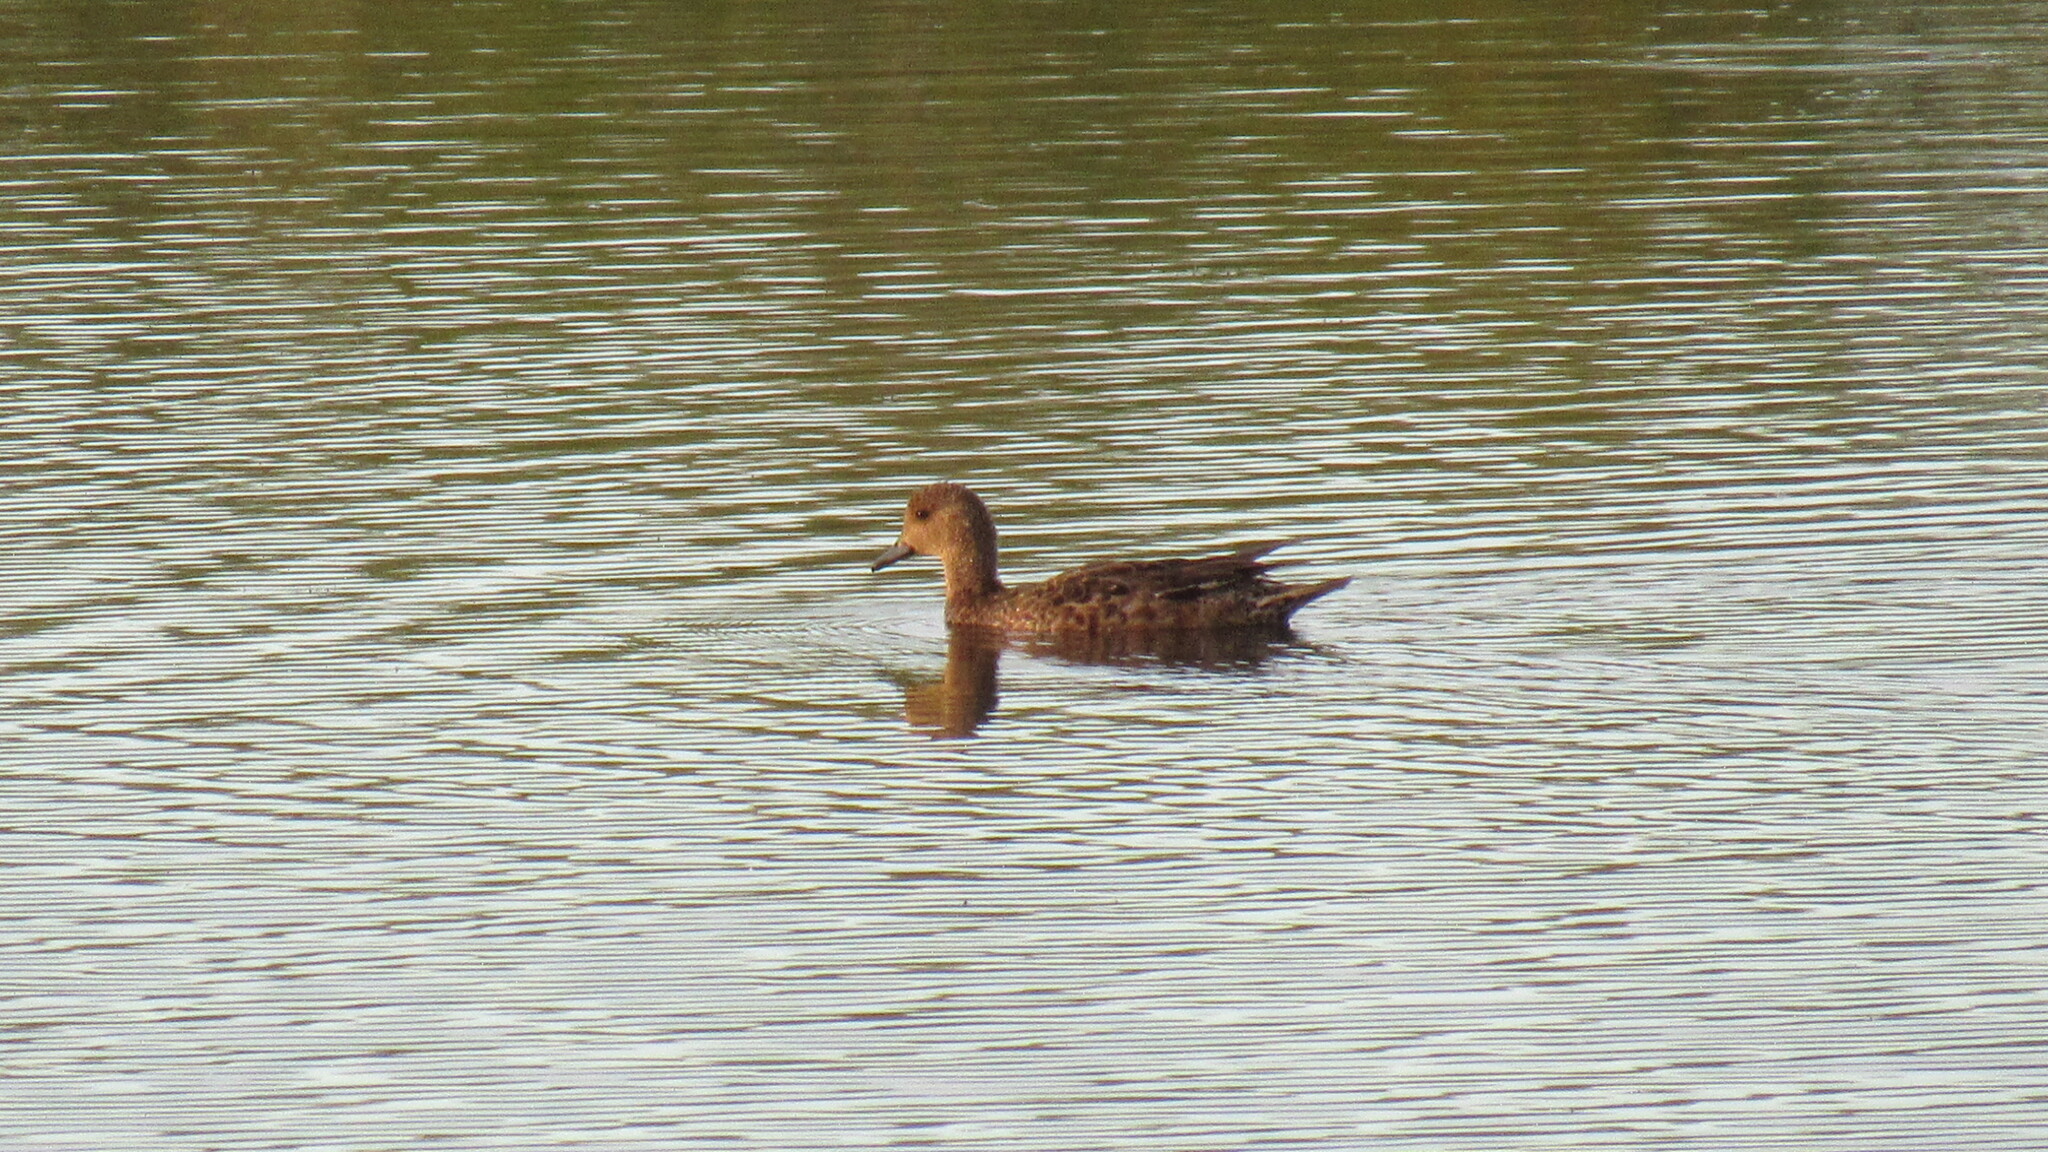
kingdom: Animalia
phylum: Chordata
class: Aves
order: Anseriformes
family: Anatidae
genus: Mareca
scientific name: Mareca penelope
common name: Eurasian wigeon
